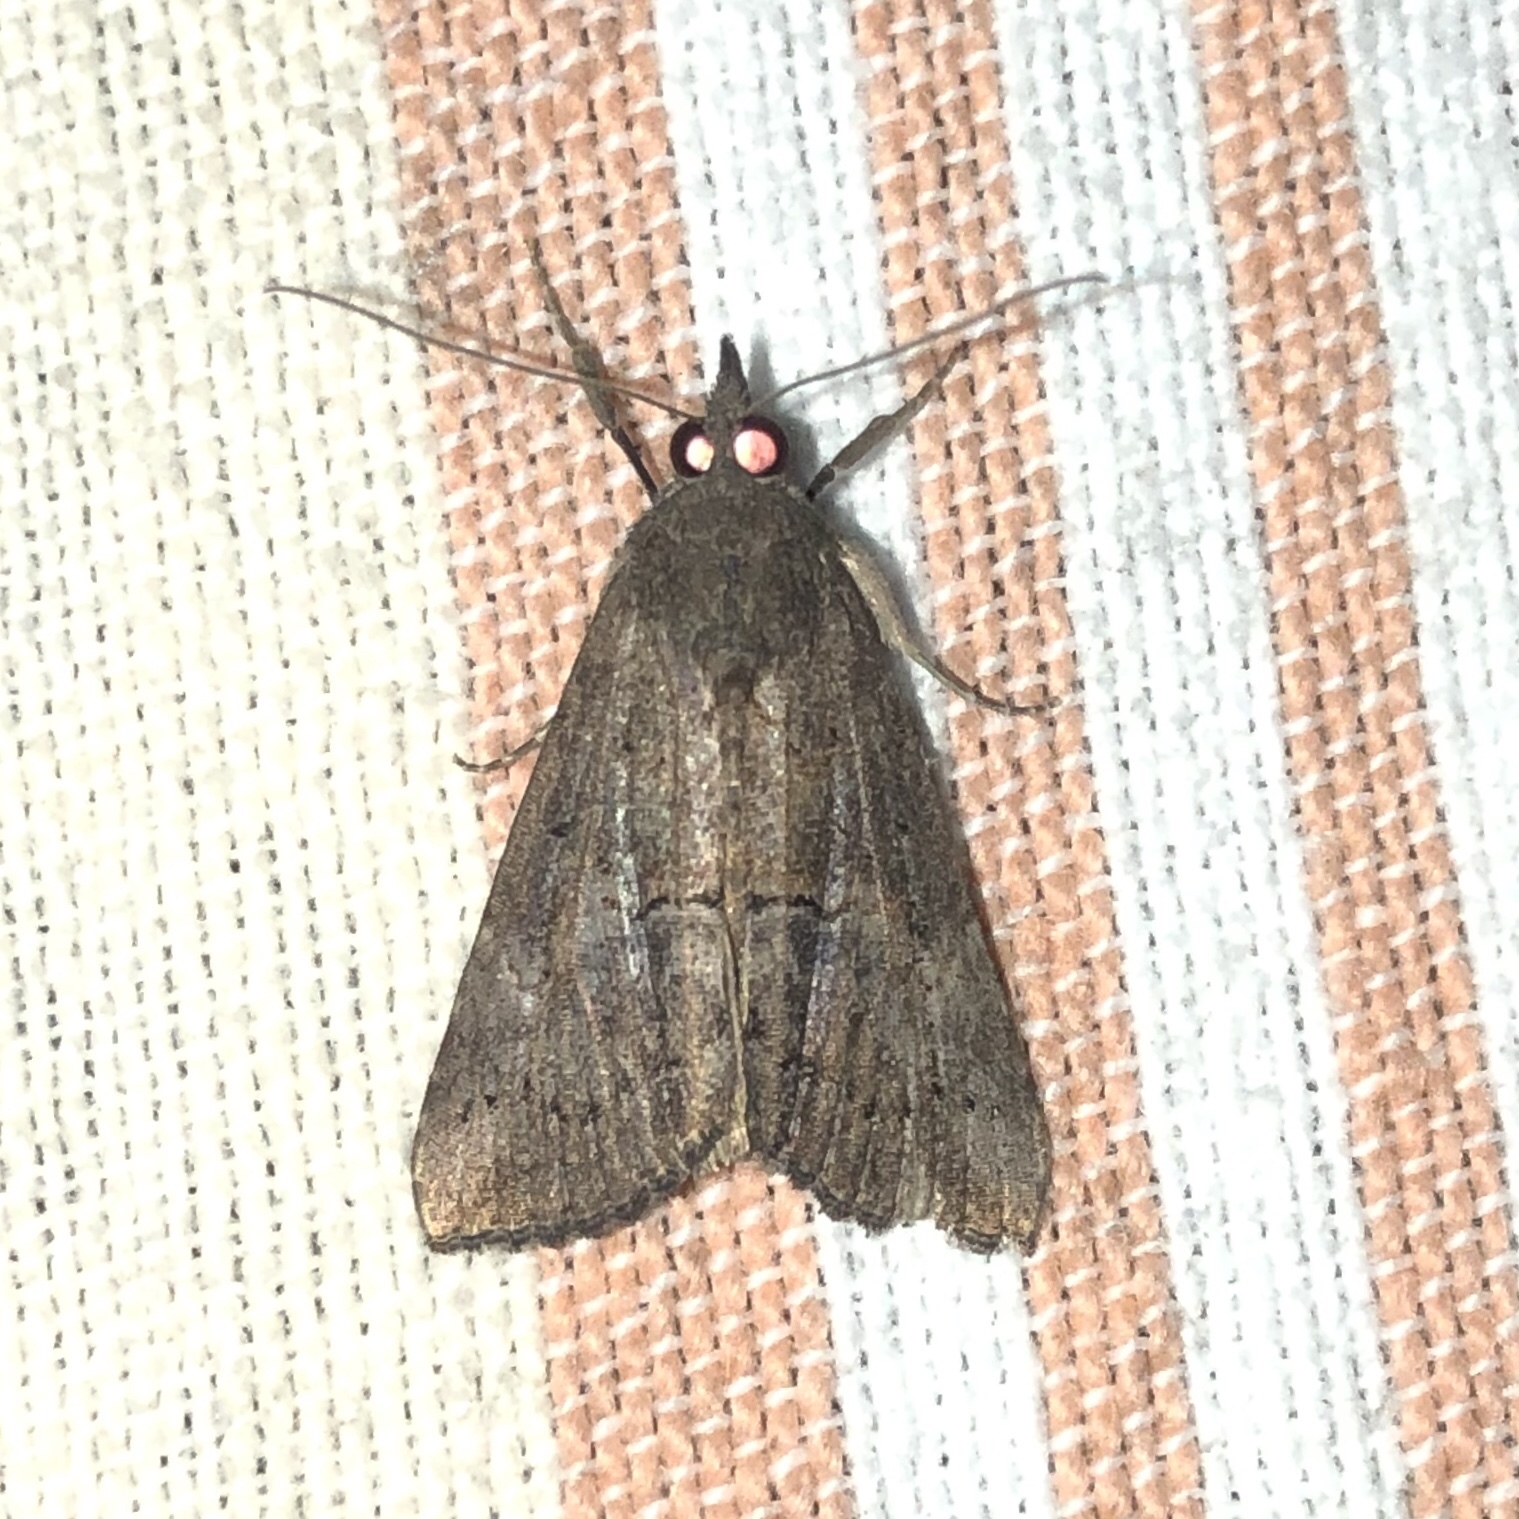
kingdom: Animalia
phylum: Arthropoda
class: Insecta
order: Lepidoptera
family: Erebidae
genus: Hypena
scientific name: Hypena scabra
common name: Green cloverworm
